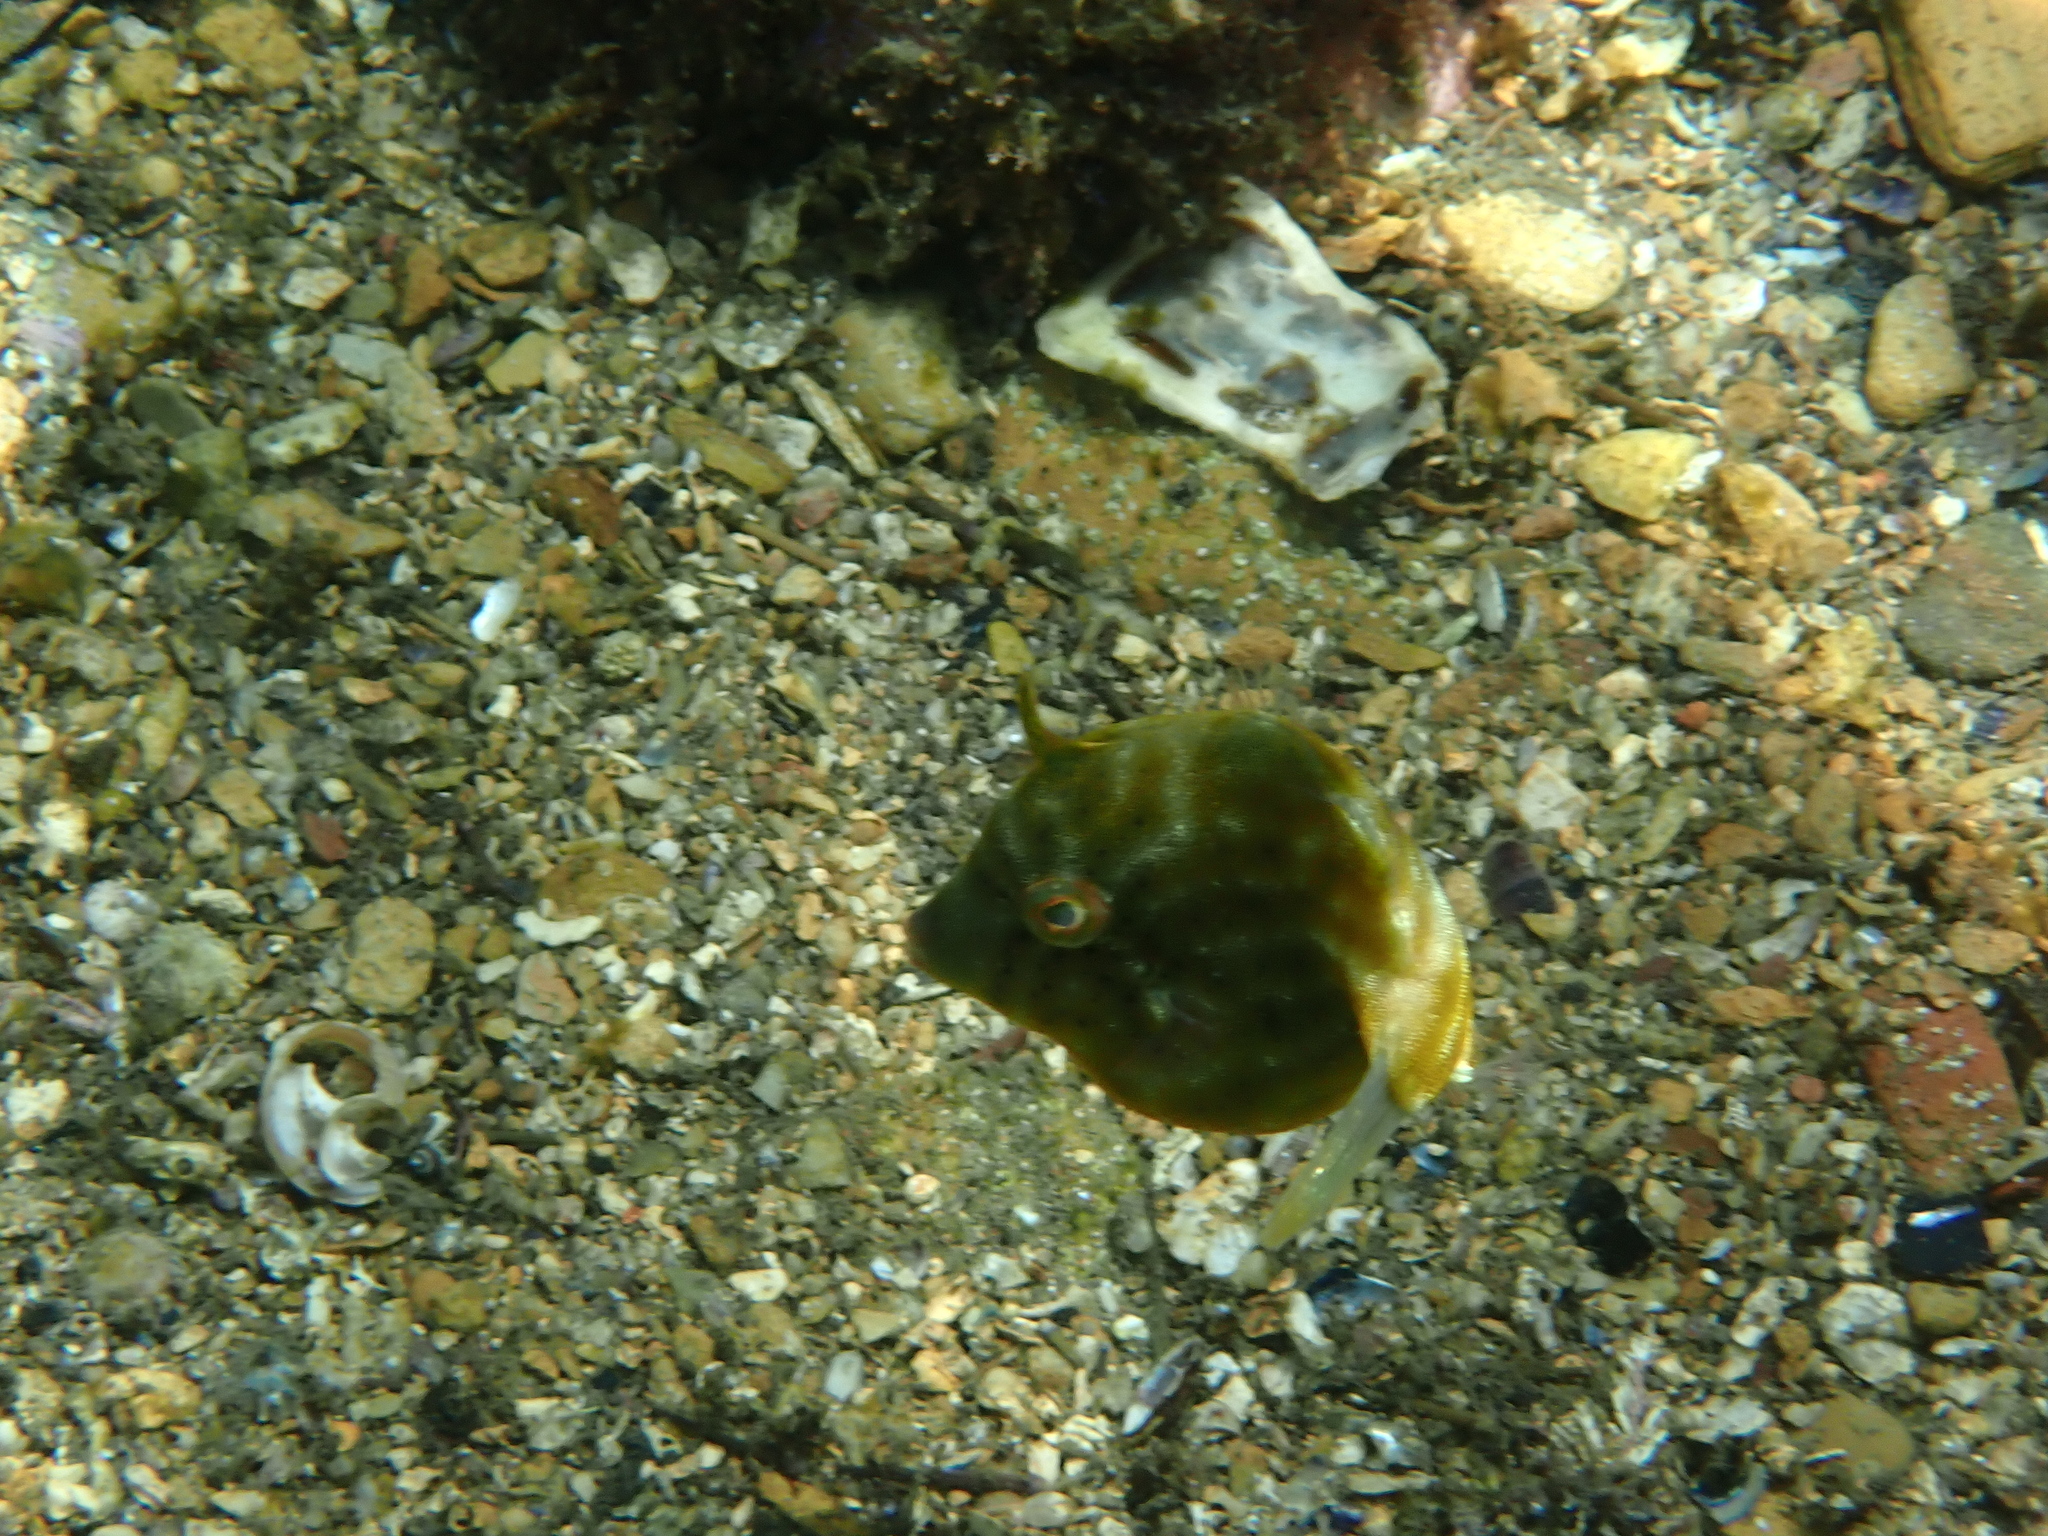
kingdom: Animalia
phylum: Chordata
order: Tetraodontiformes
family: Monacanthidae
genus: Brachaluteres
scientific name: Brachaluteres jacksonianus
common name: Pigmy leatherjacket
